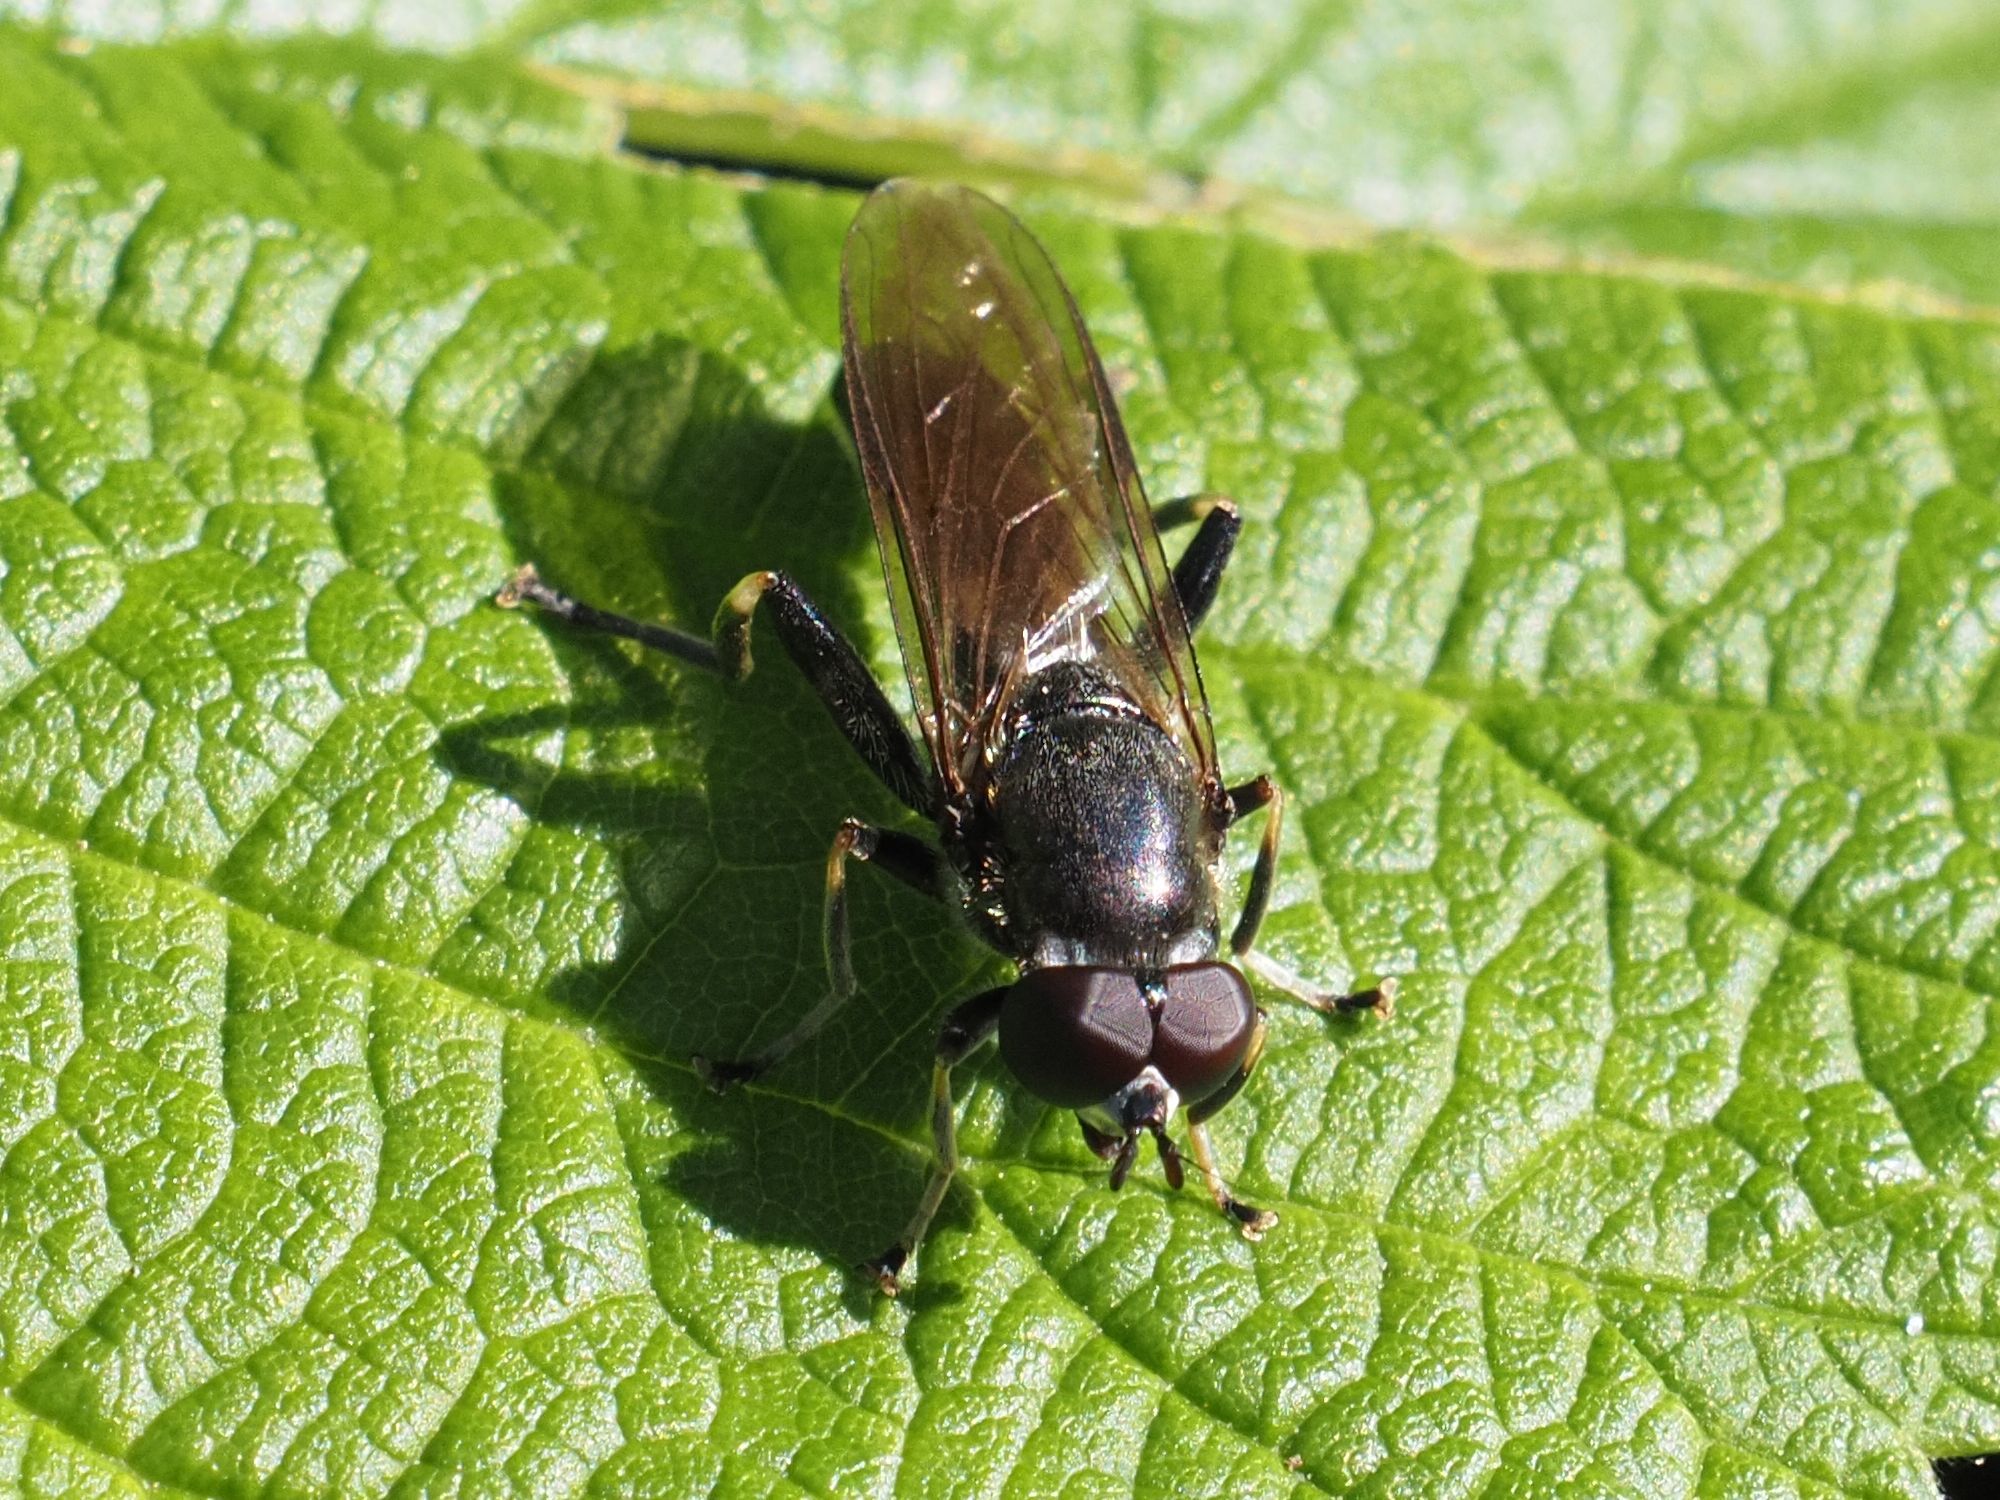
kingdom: Animalia
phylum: Arthropoda
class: Insecta
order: Diptera
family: Syrphidae
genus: Xylota
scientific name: Xylota florum
